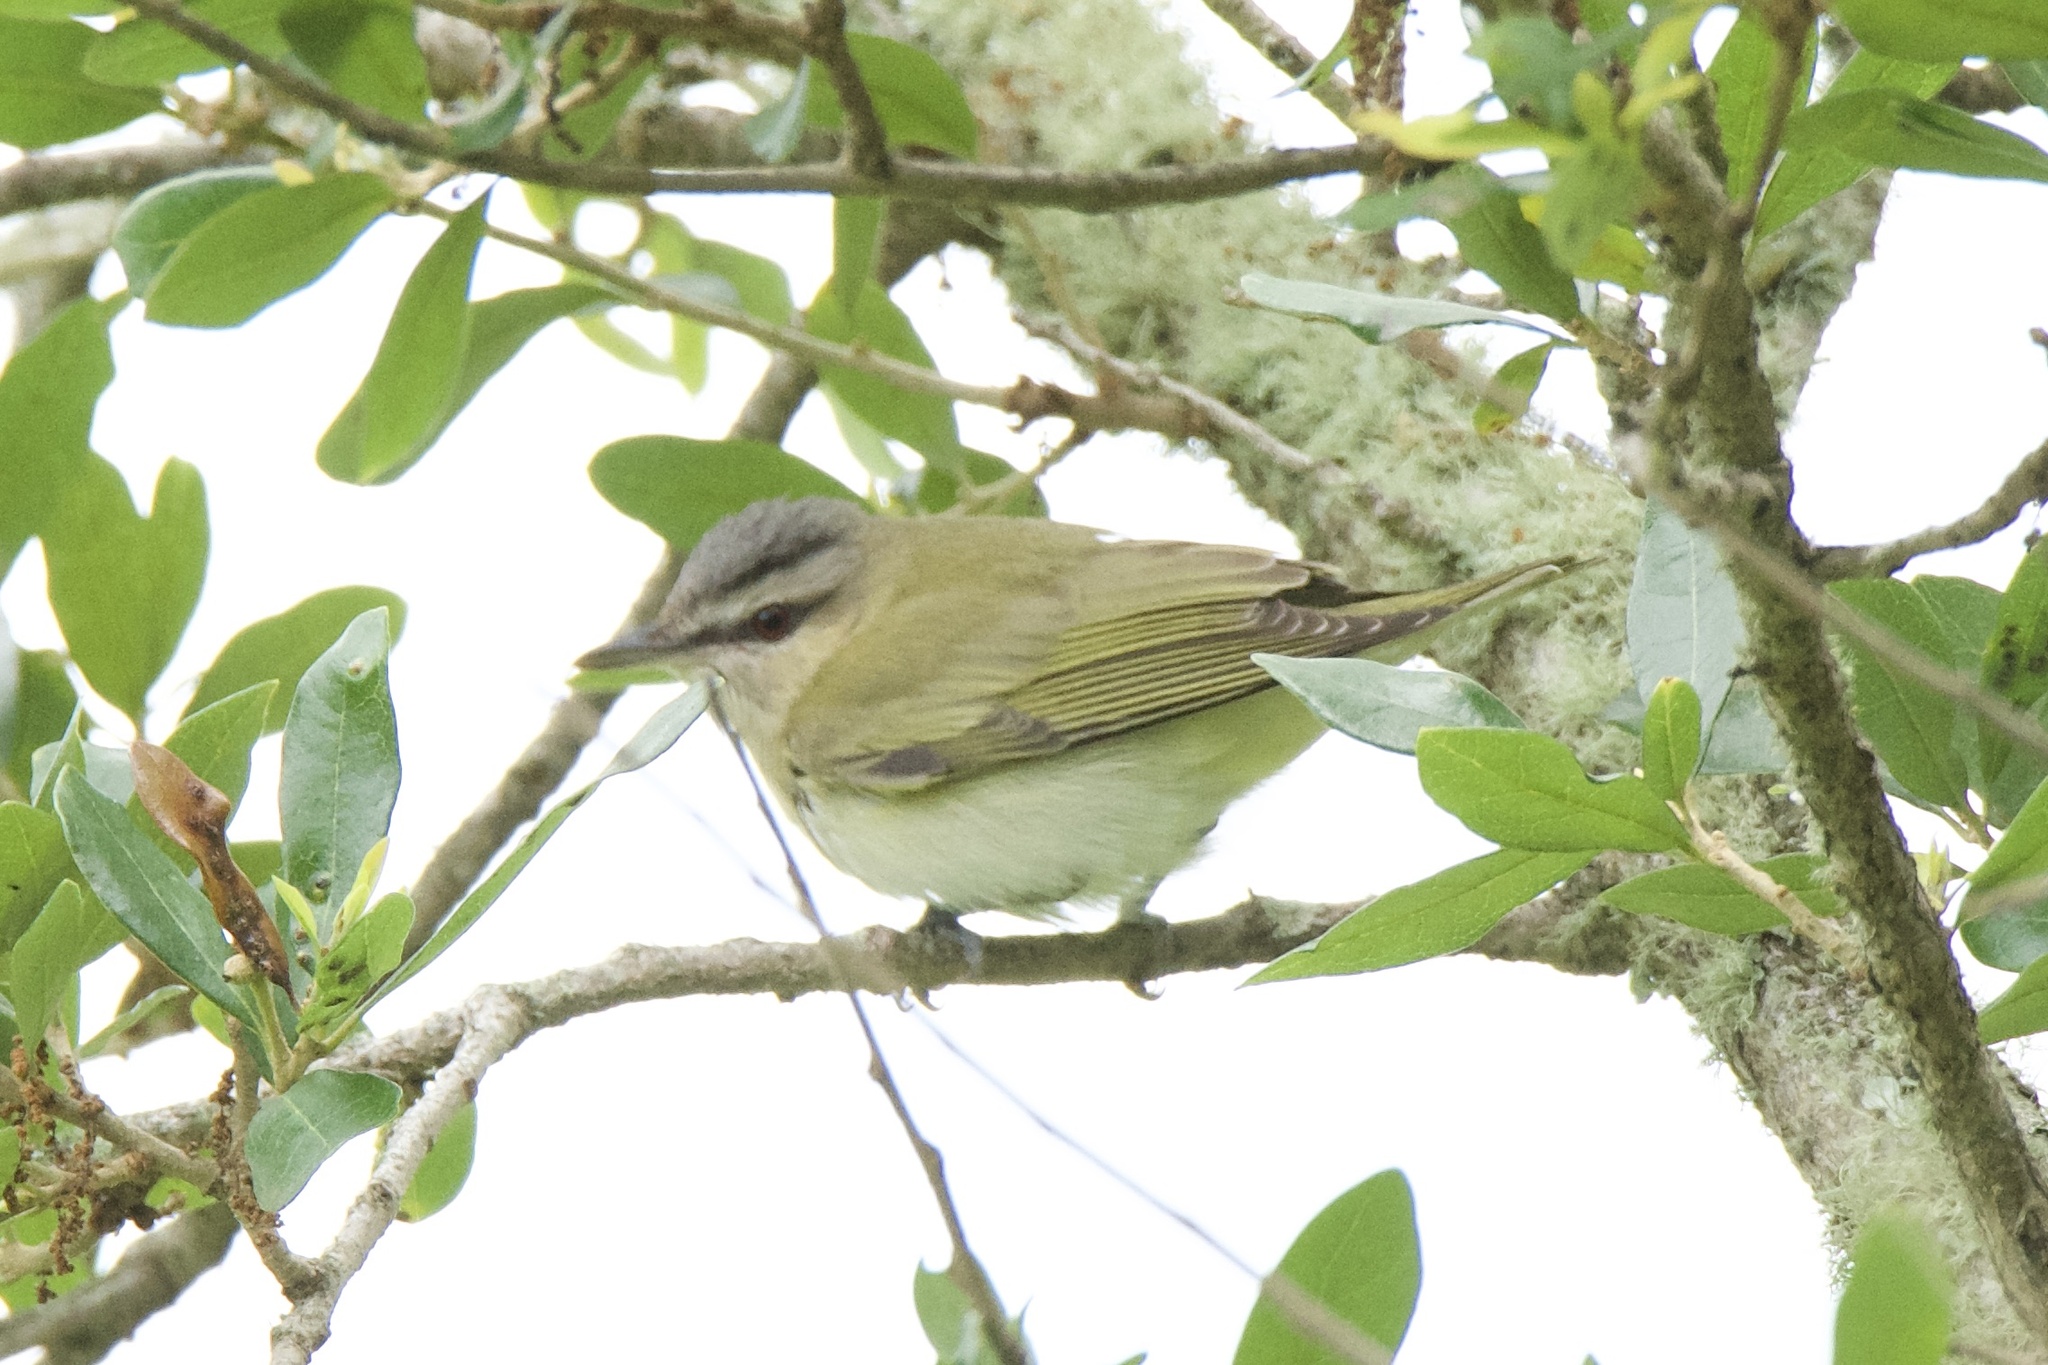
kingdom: Animalia
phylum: Chordata
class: Aves
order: Passeriformes
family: Vireonidae
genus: Vireo
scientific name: Vireo olivaceus
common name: Red-eyed vireo
